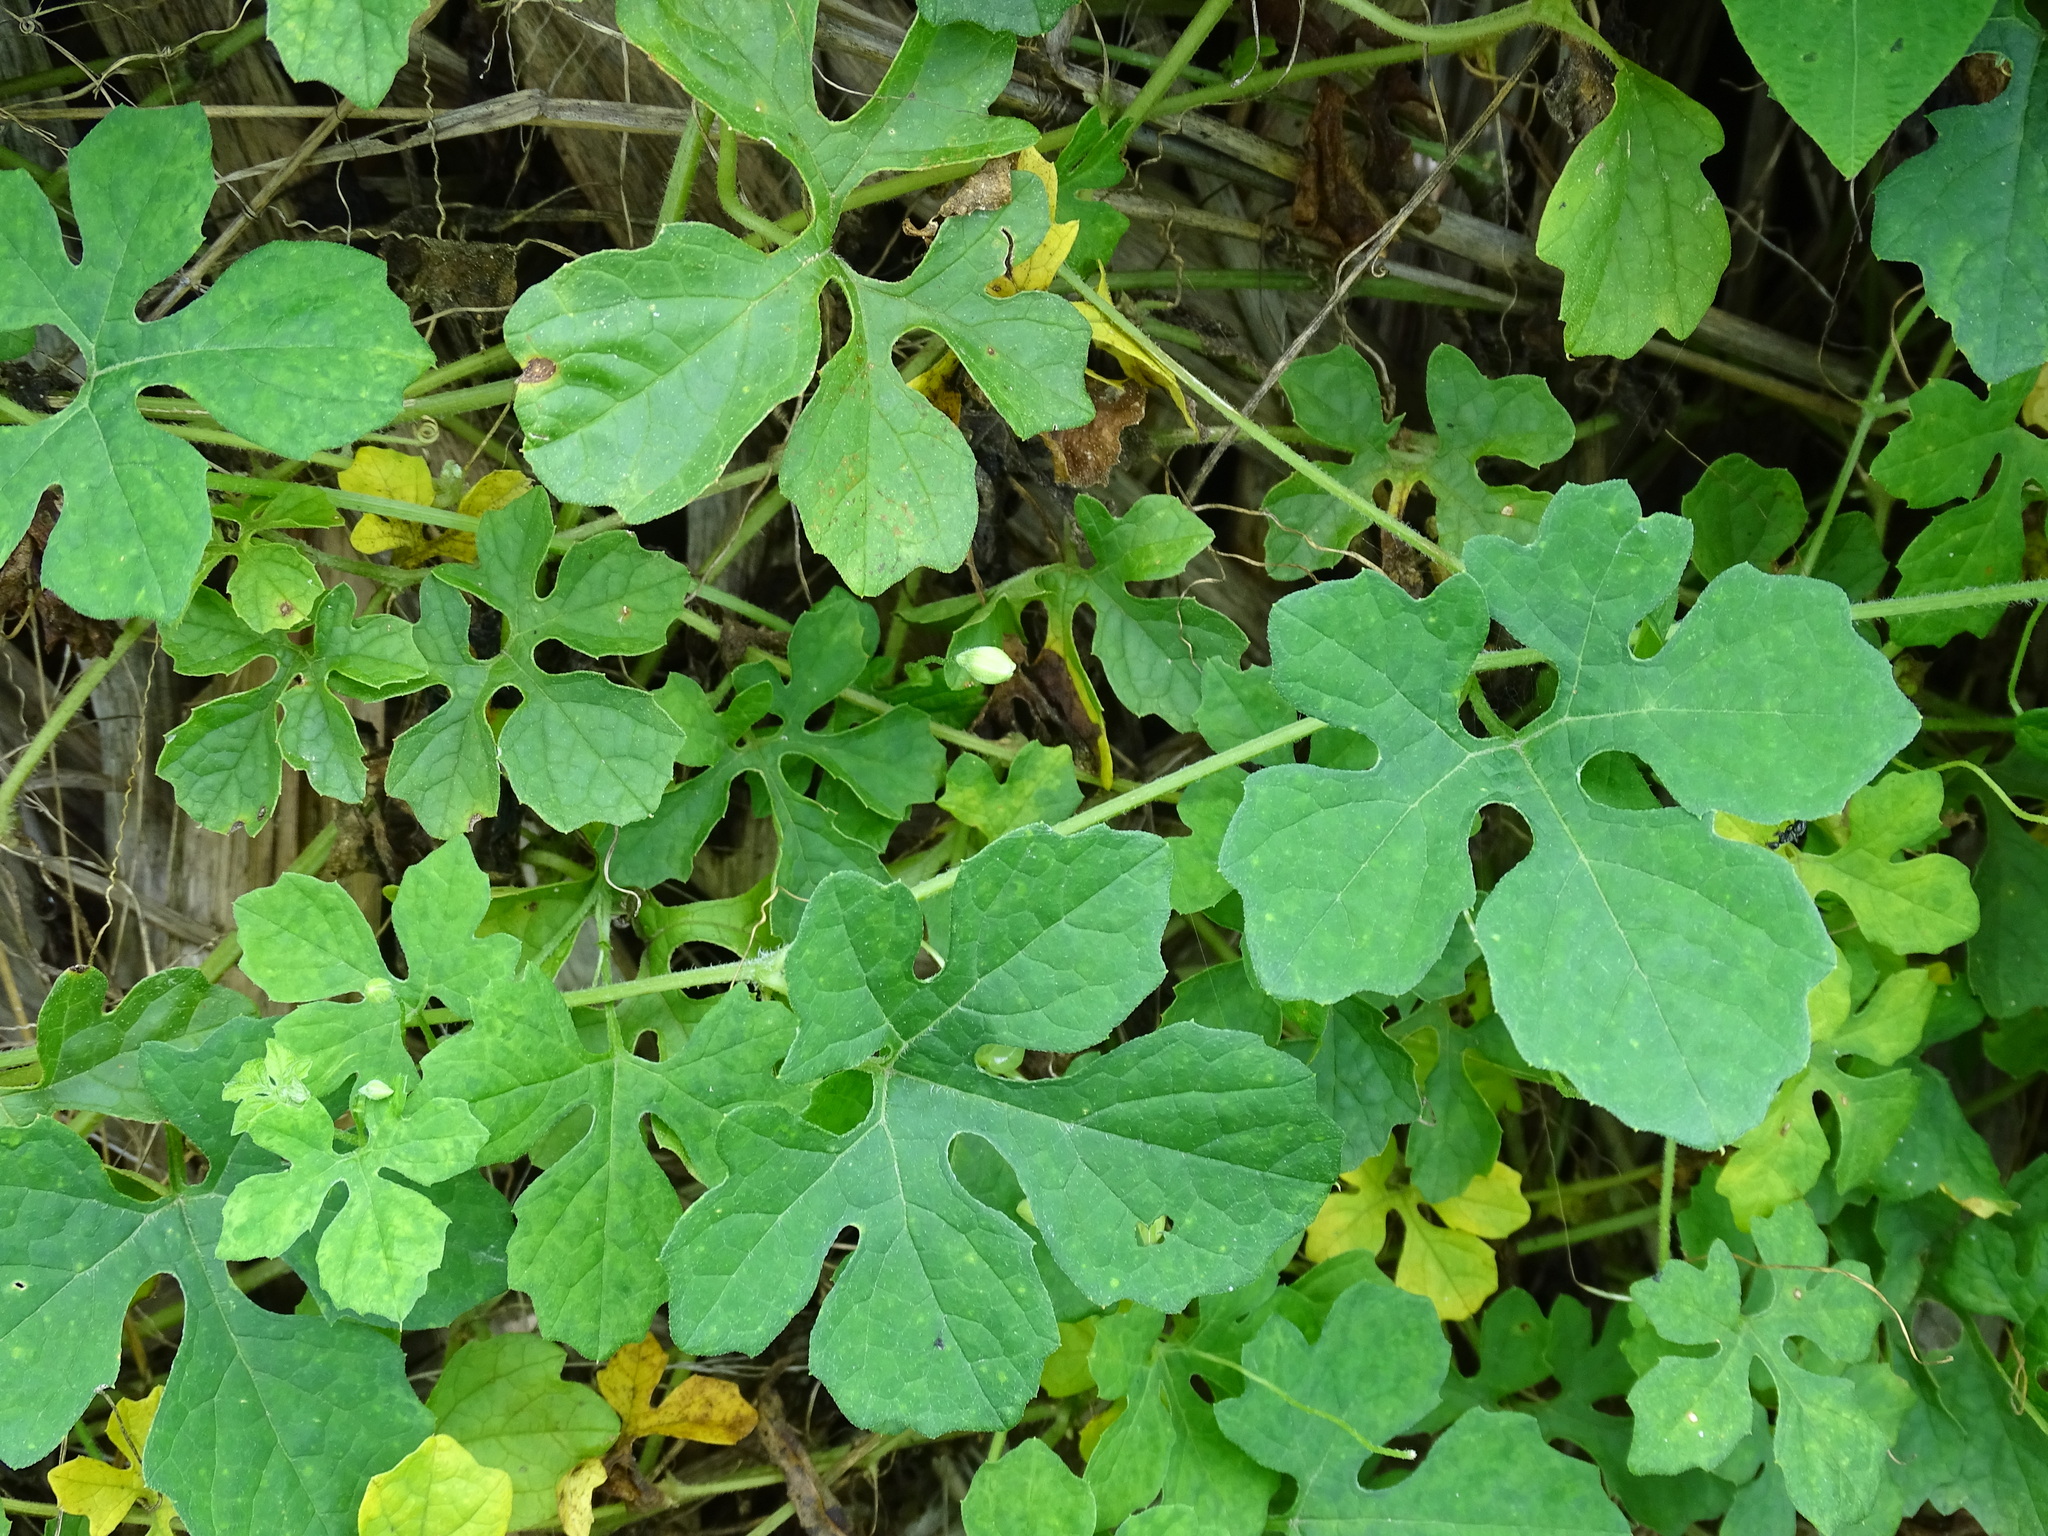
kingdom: Plantae
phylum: Tracheophyta
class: Magnoliopsida
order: Cucurbitales
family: Cucurbitaceae
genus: Momordica
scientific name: Momordica charantia
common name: Balsampear
